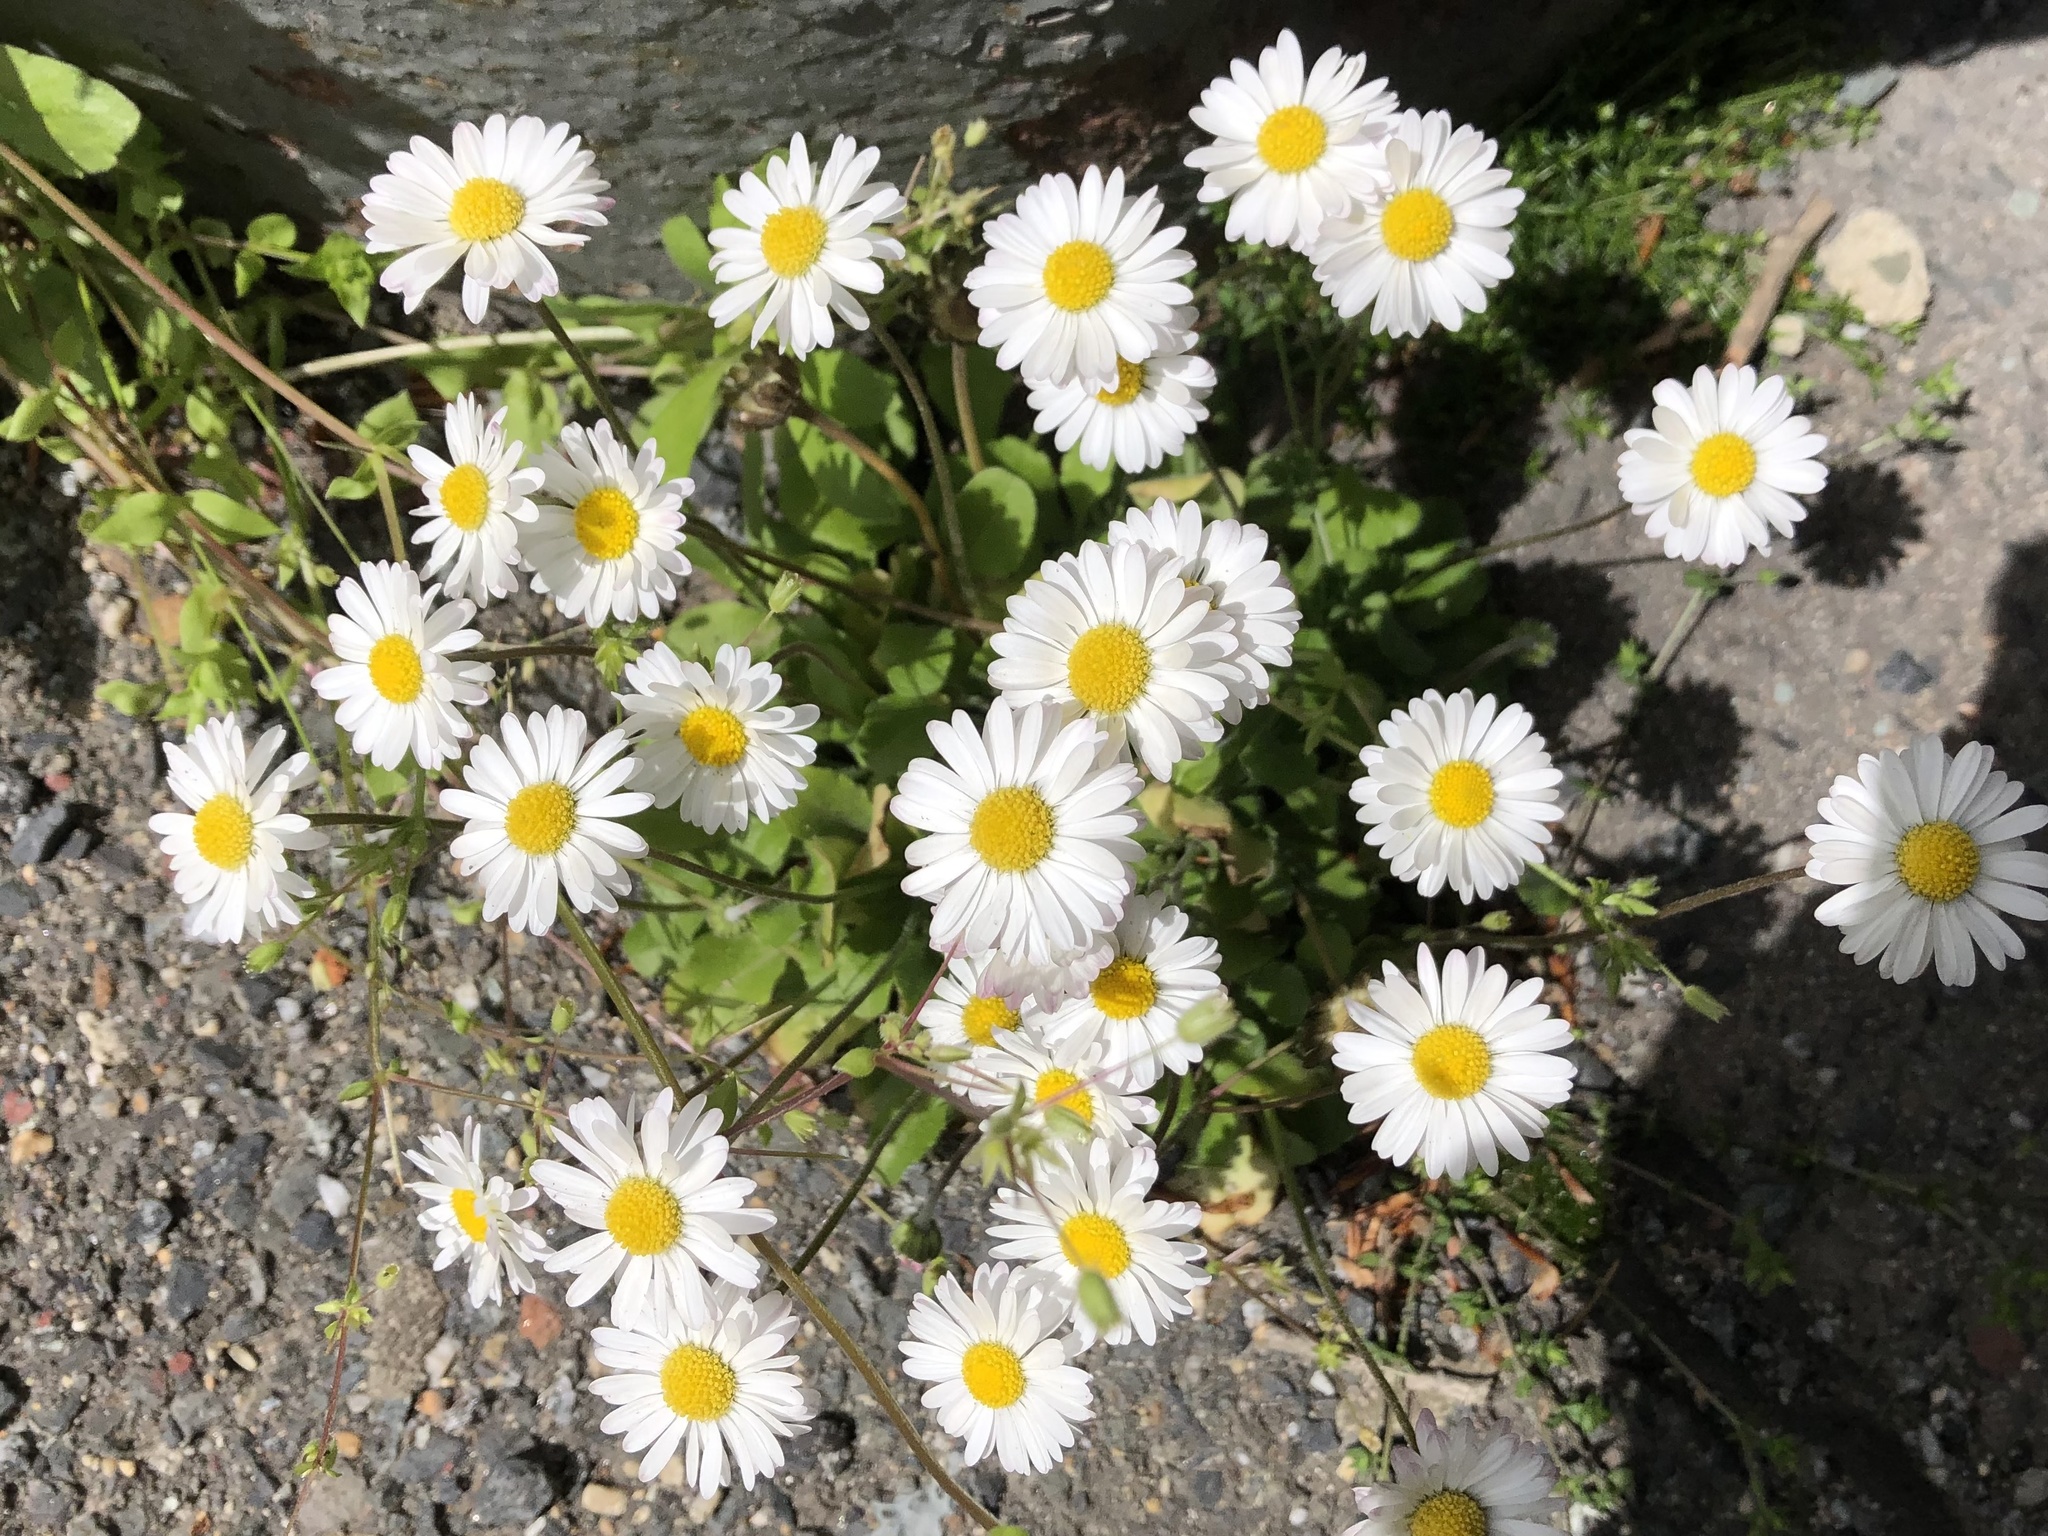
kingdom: Plantae
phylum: Tracheophyta
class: Magnoliopsida
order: Asterales
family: Asteraceae
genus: Bellis
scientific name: Bellis perennis
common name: Lawndaisy
